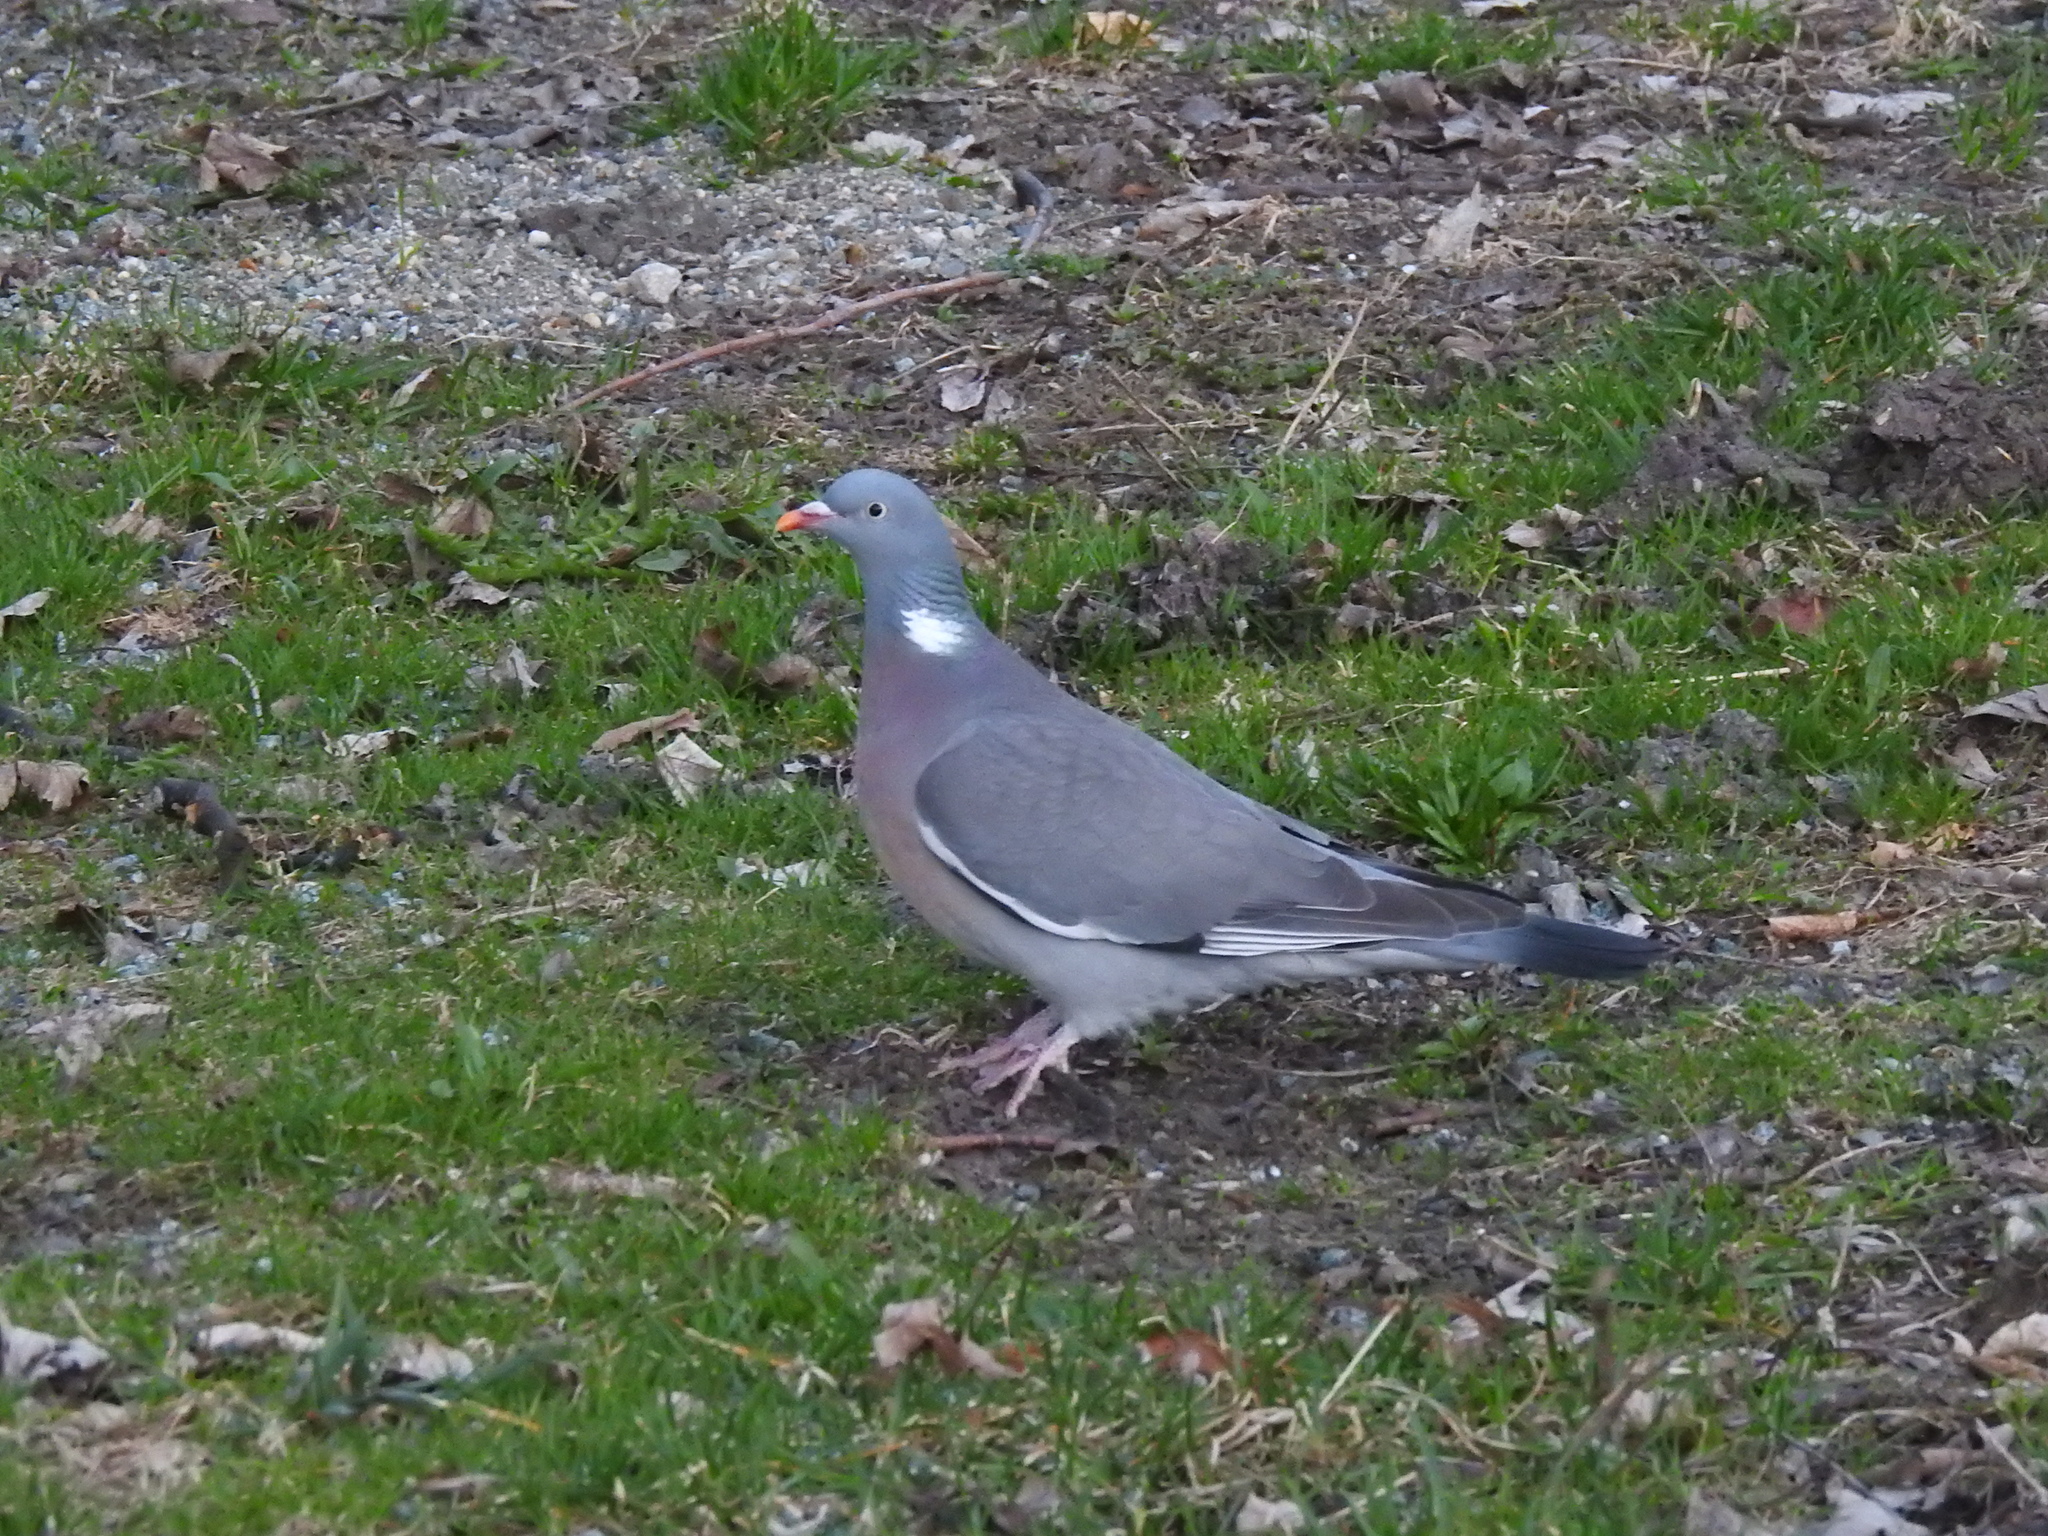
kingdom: Animalia
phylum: Chordata
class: Aves
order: Columbiformes
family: Columbidae
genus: Columba
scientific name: Columba palumbus
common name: Common wood pigeon
